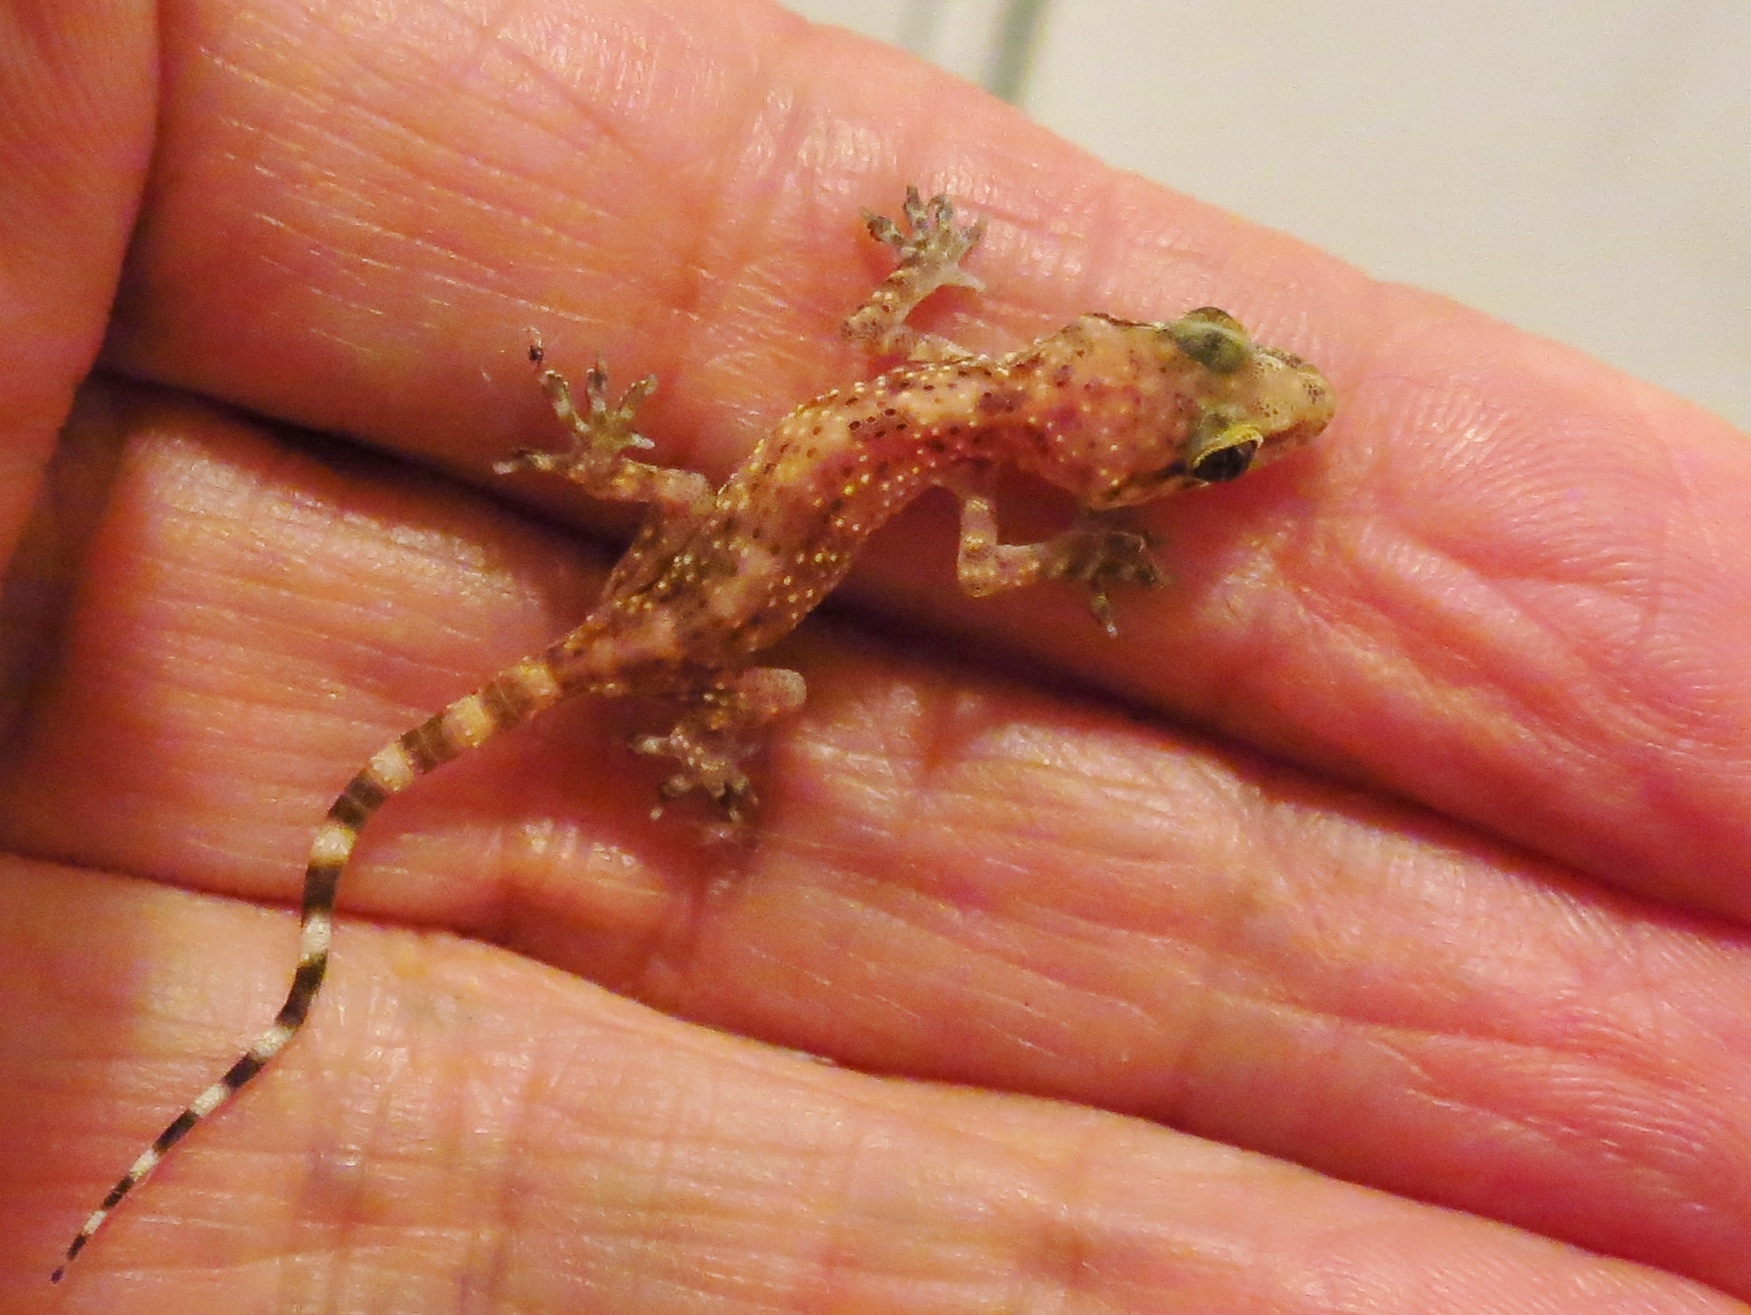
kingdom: Animalia
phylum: Chordata
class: Squamata
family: Gekkonidae
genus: Hemidactylus
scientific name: Hemidactylus turcicus
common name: Turkish gecko
